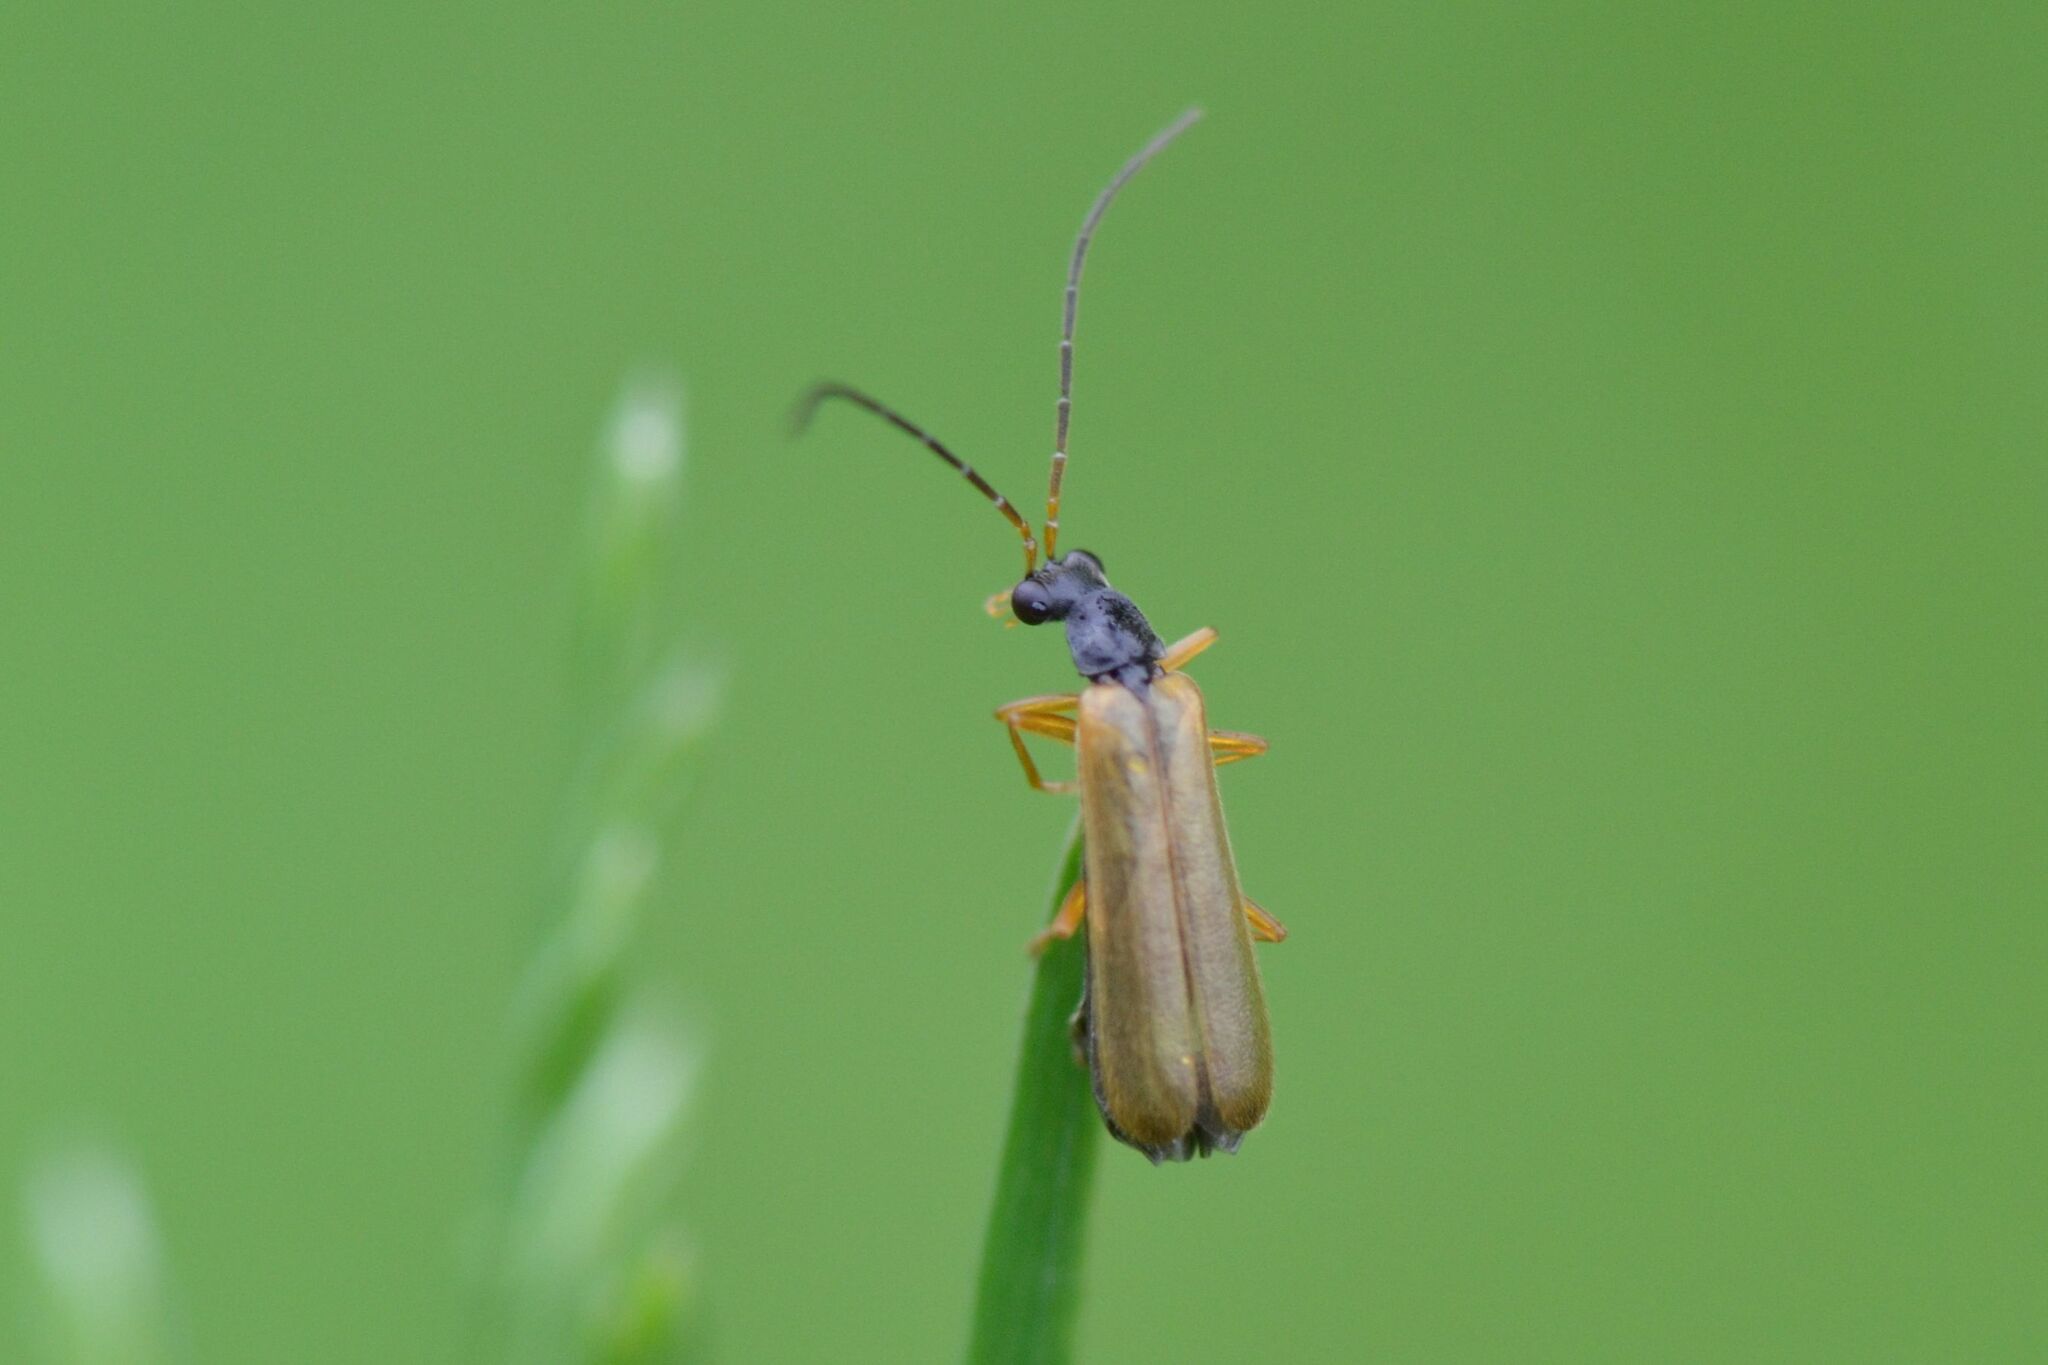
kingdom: Animalia
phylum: Arthropoda
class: Insecta
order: Coleoptera
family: Cantharidae
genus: Rhagonycha
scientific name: Rhagonycha lignosa
